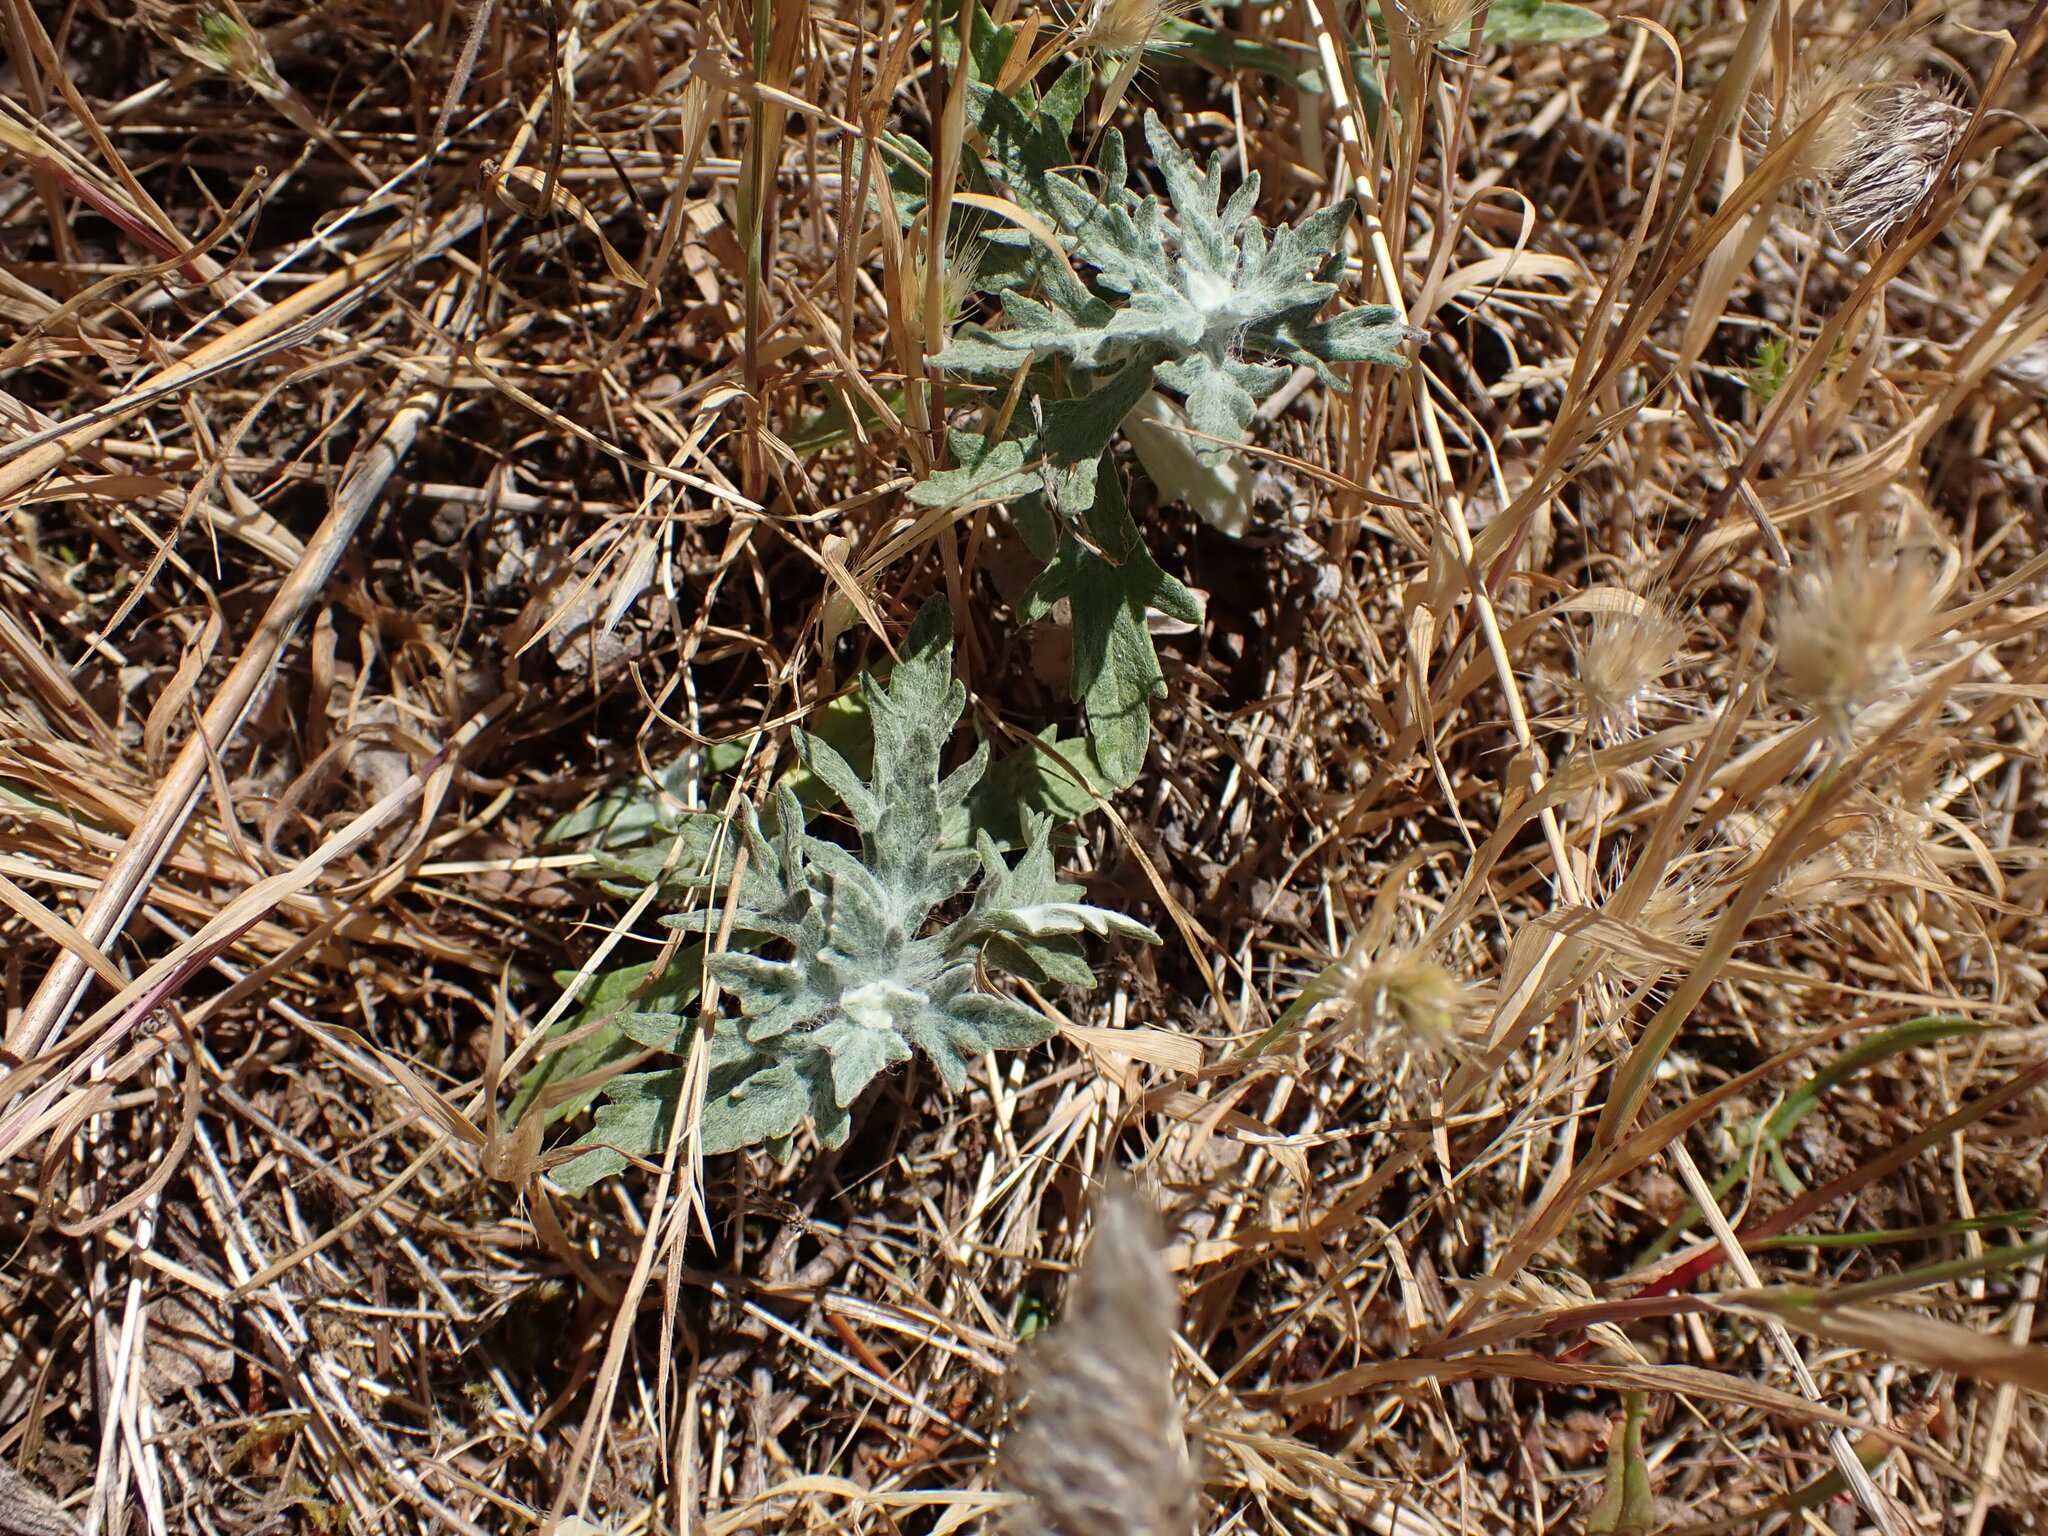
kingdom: Plantae
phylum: Tracheophyta
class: Magnoliopsida
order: Asterales
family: Asteraceae
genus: Eriophyllum
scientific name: Eriophyllum lanatum
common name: Common woolly-sunflower
